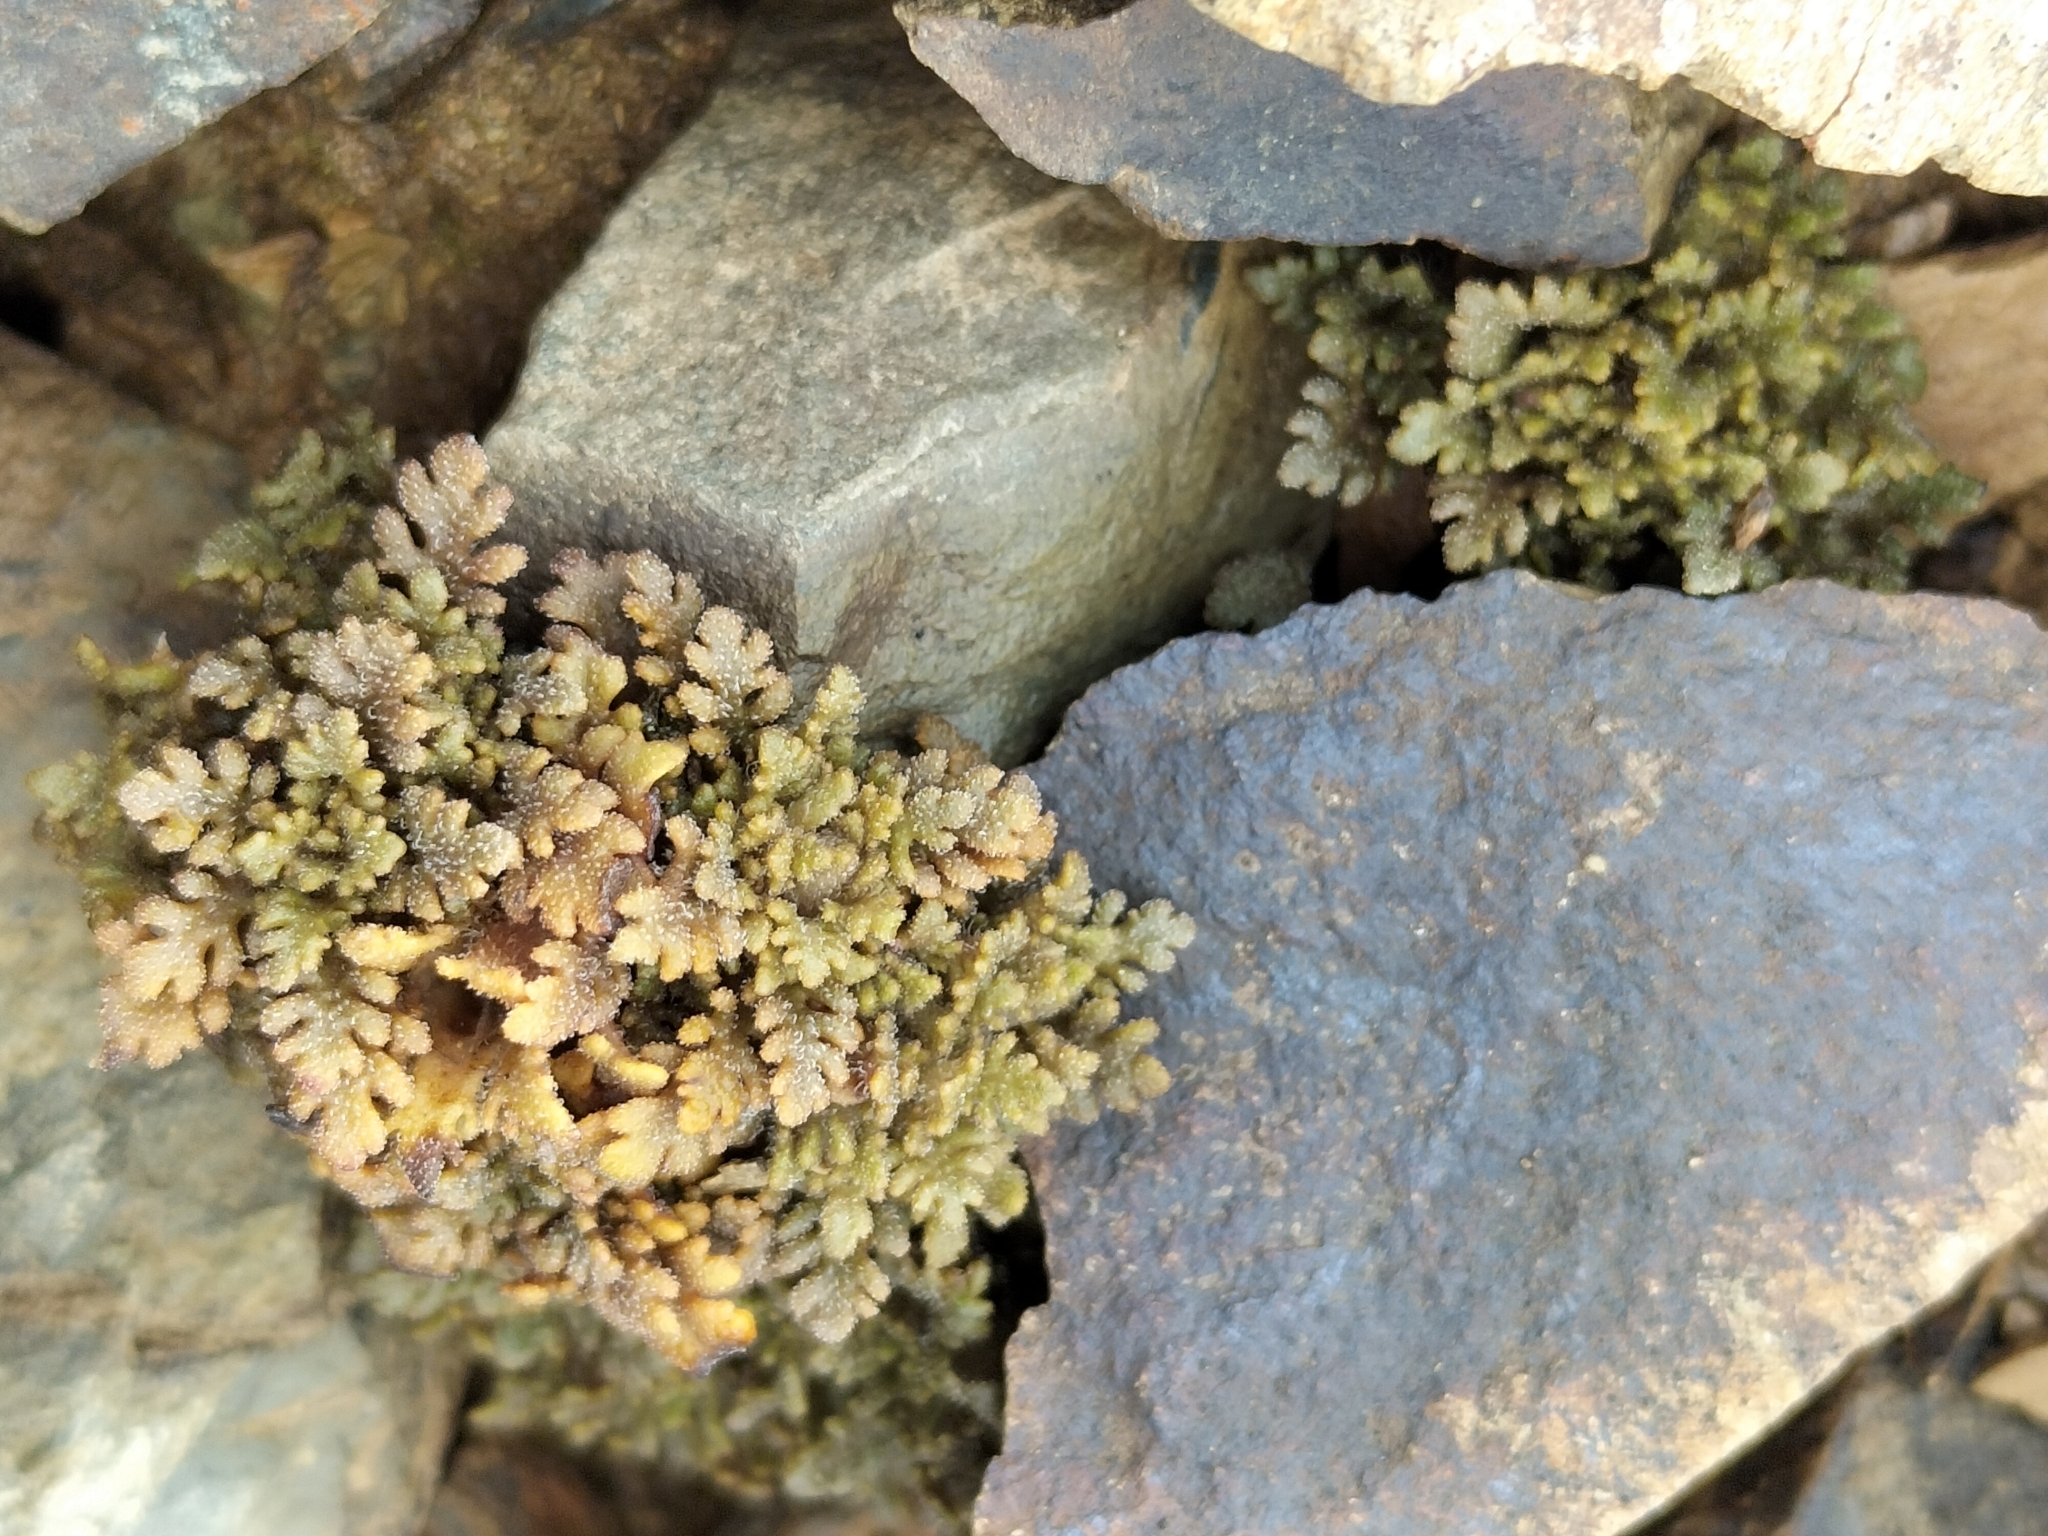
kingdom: Plantae
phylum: Tracheophyta
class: Magnoliopsida
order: Lamiales
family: Plantaginaceae
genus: Veronica
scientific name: Veronica cheesemanii
